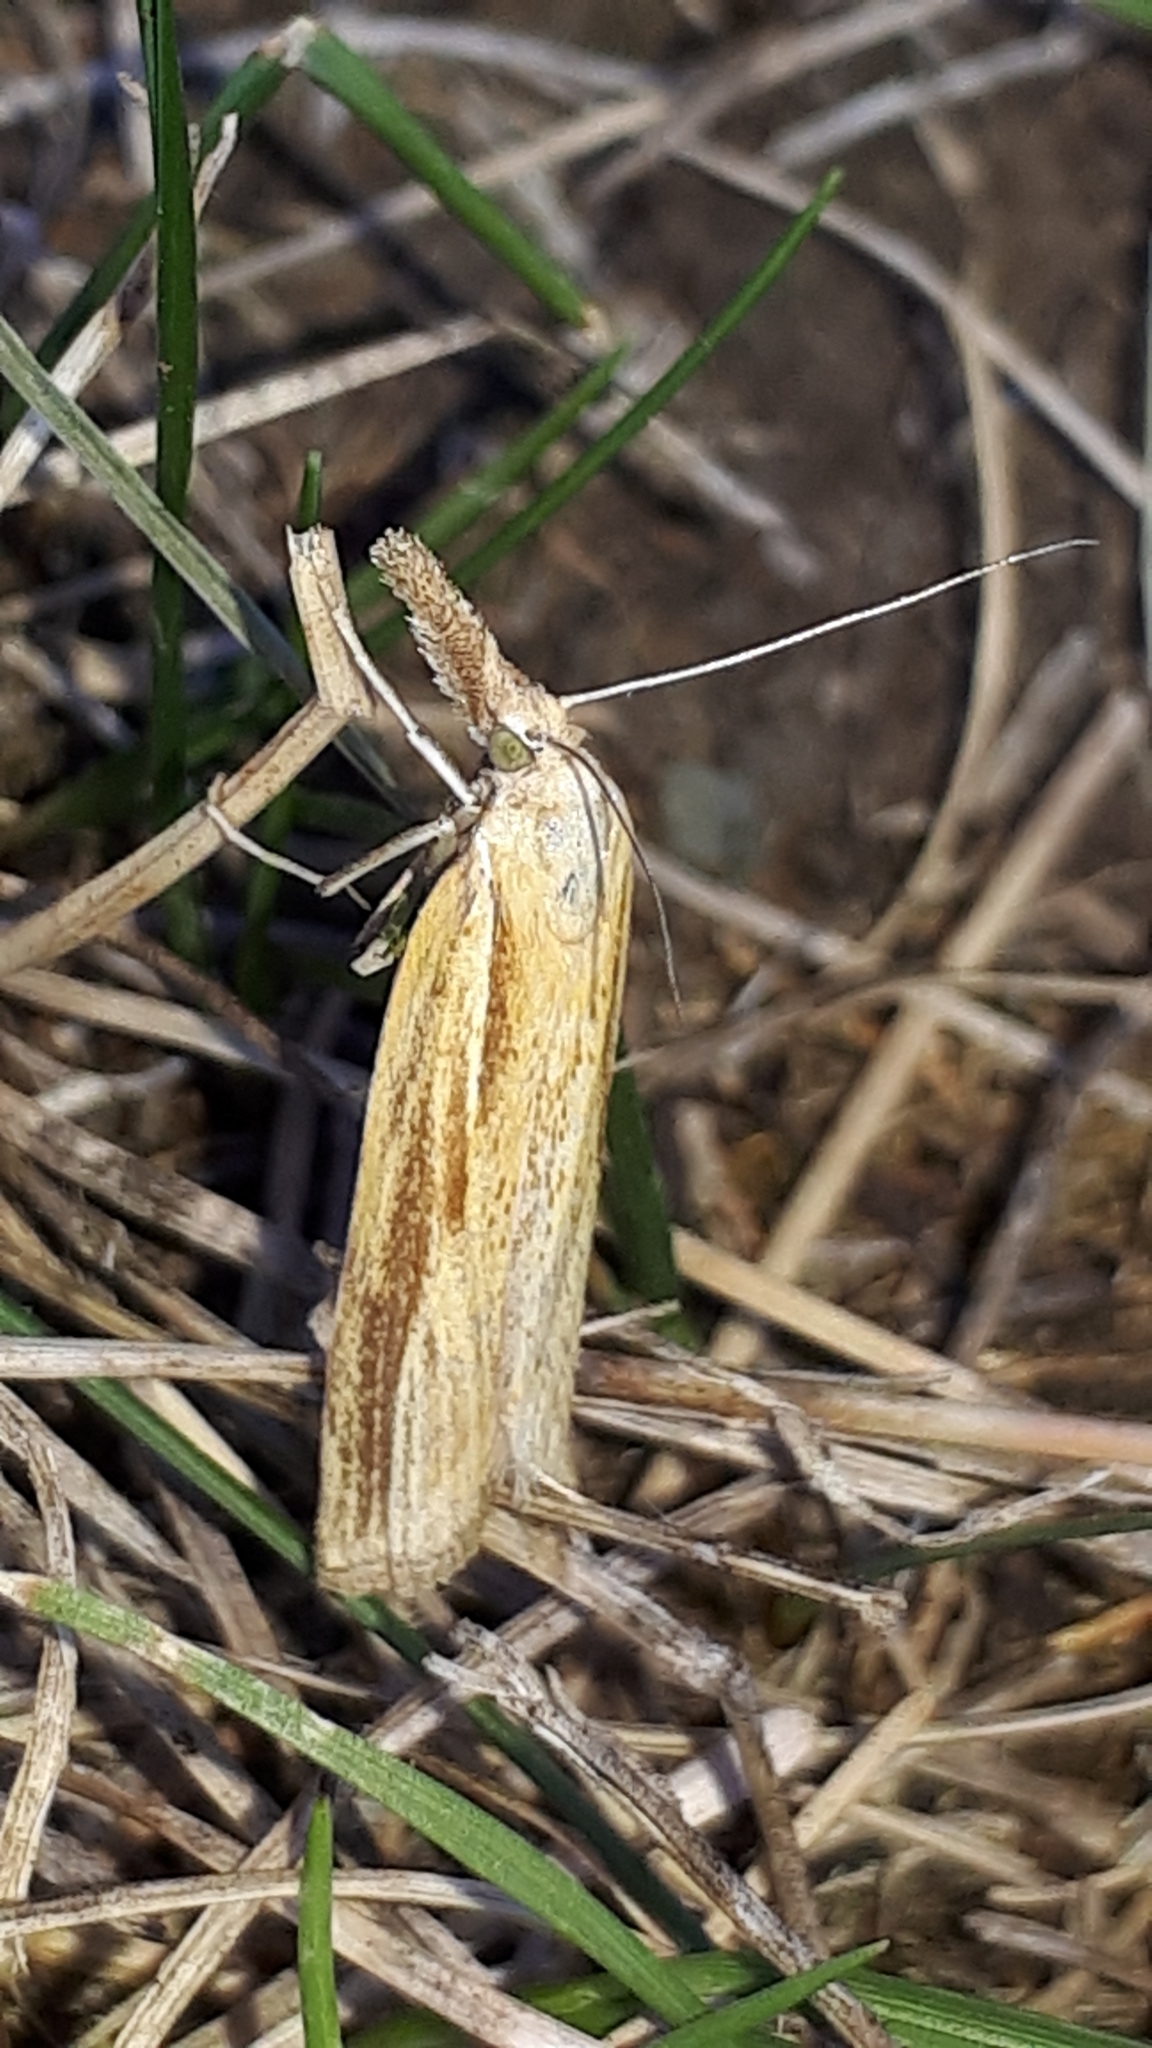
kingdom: Animalia
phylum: Arthropoda
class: Insecta
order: Lepidoptera
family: Crambidae
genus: Agriphila
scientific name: Agriphila tristellus
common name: Common grass-veneer
